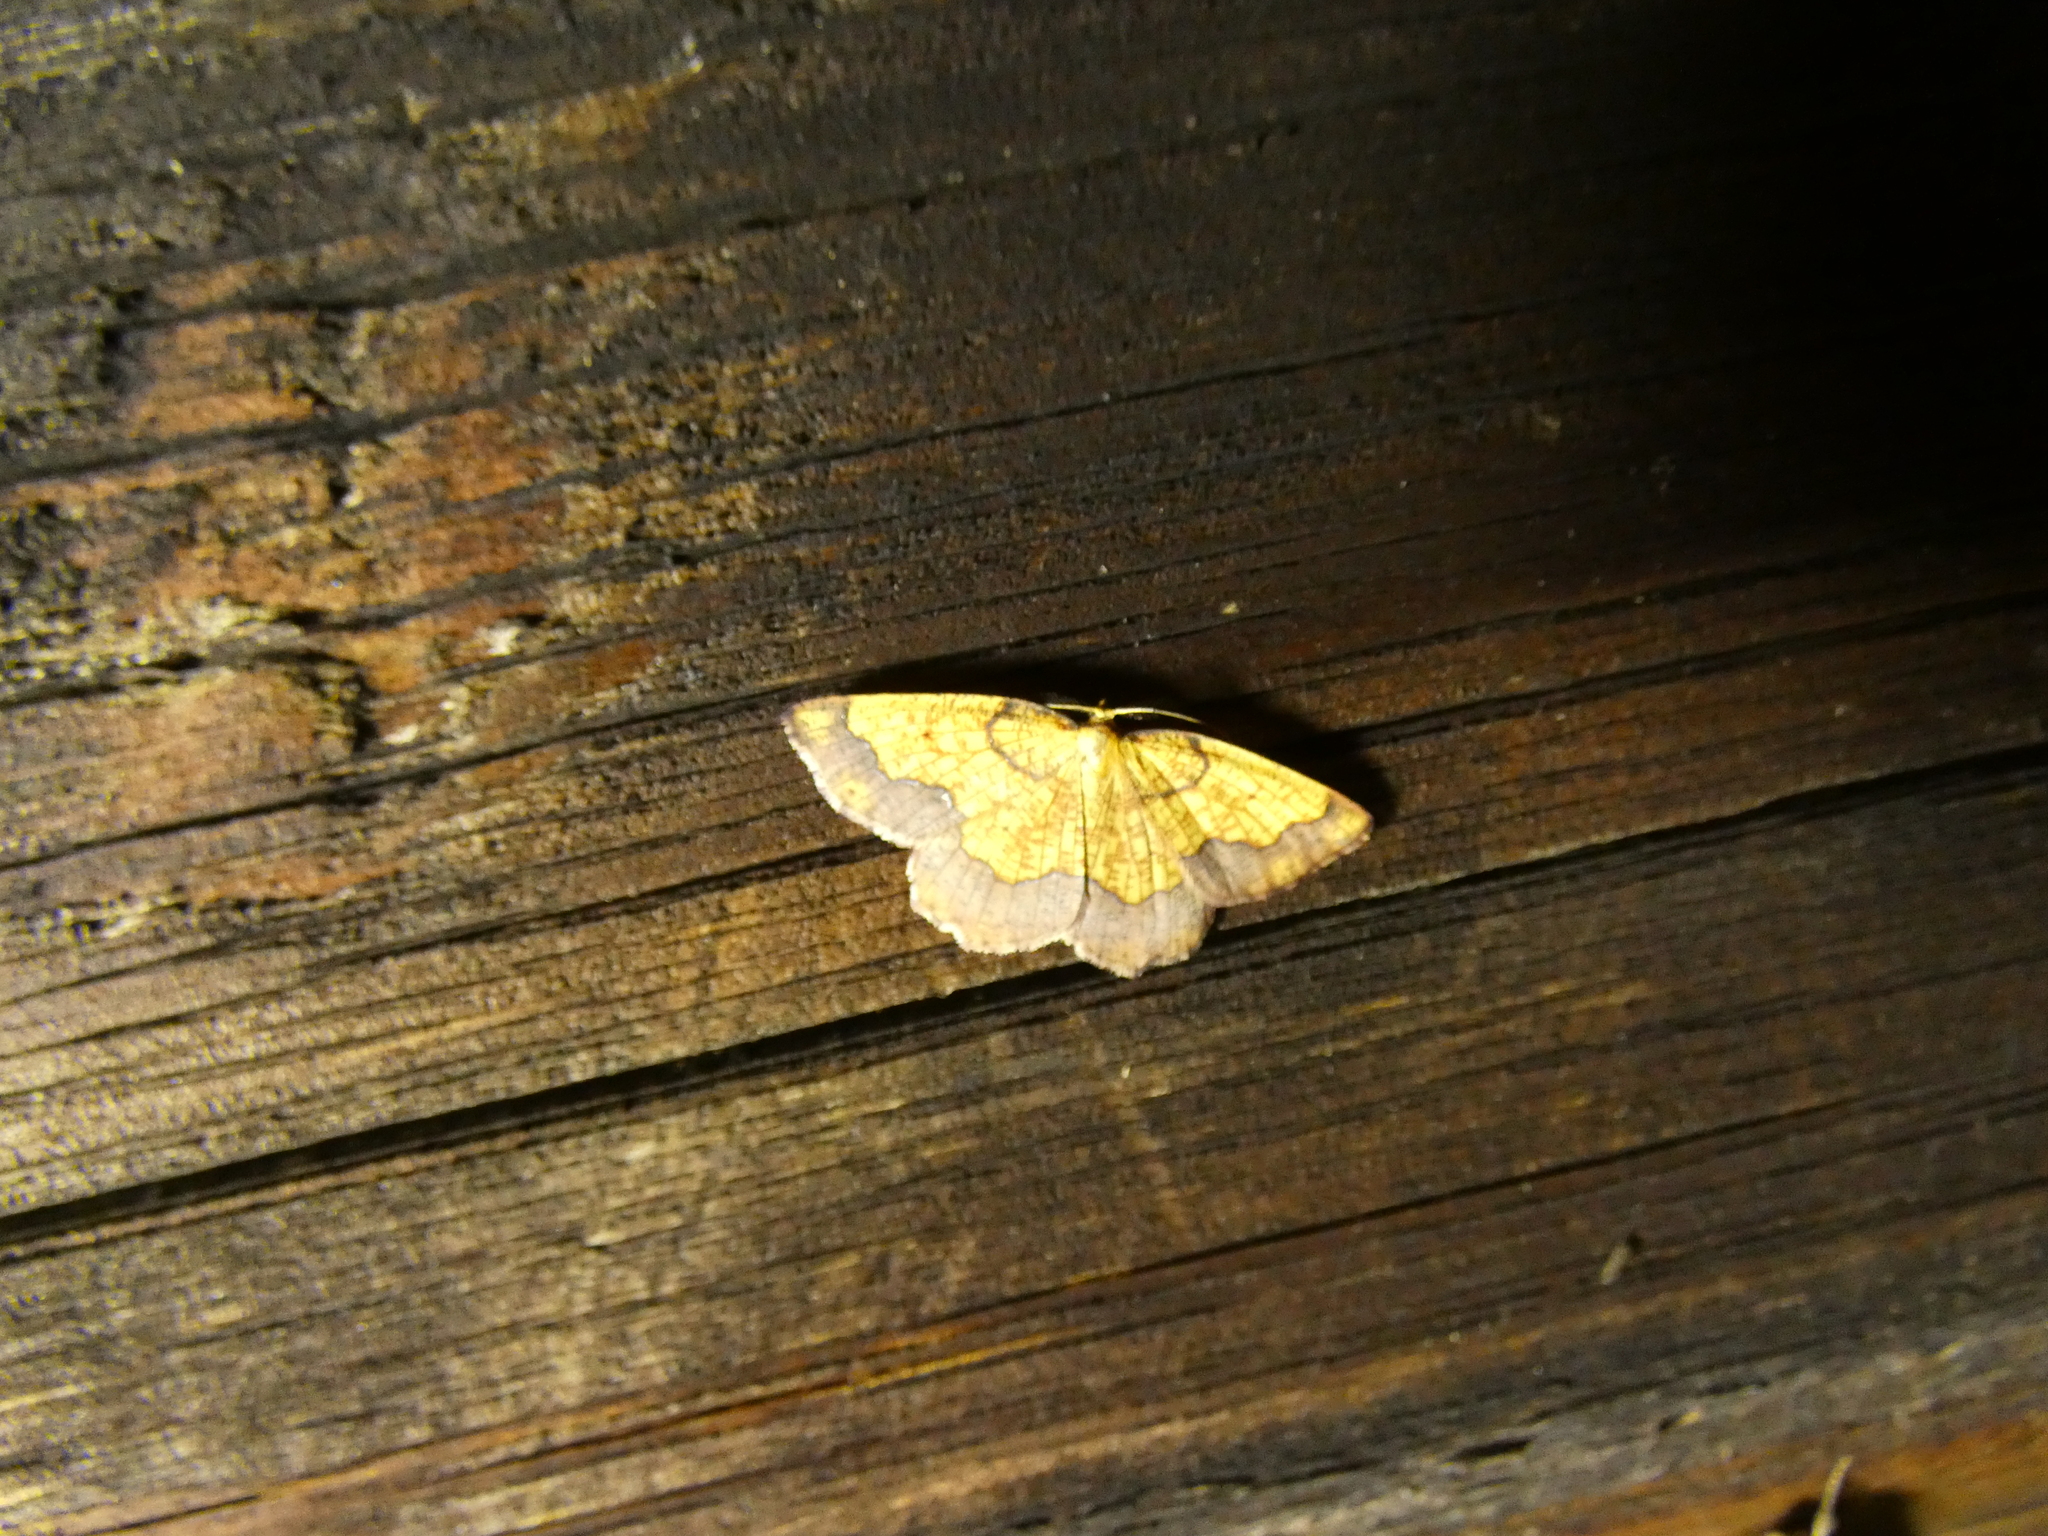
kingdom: Animalia
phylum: Arthropoda
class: Insecta
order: Lepidoptera
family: Geometridae
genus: Epione
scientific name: Epione vespertaria
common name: Dark bordered beauty
